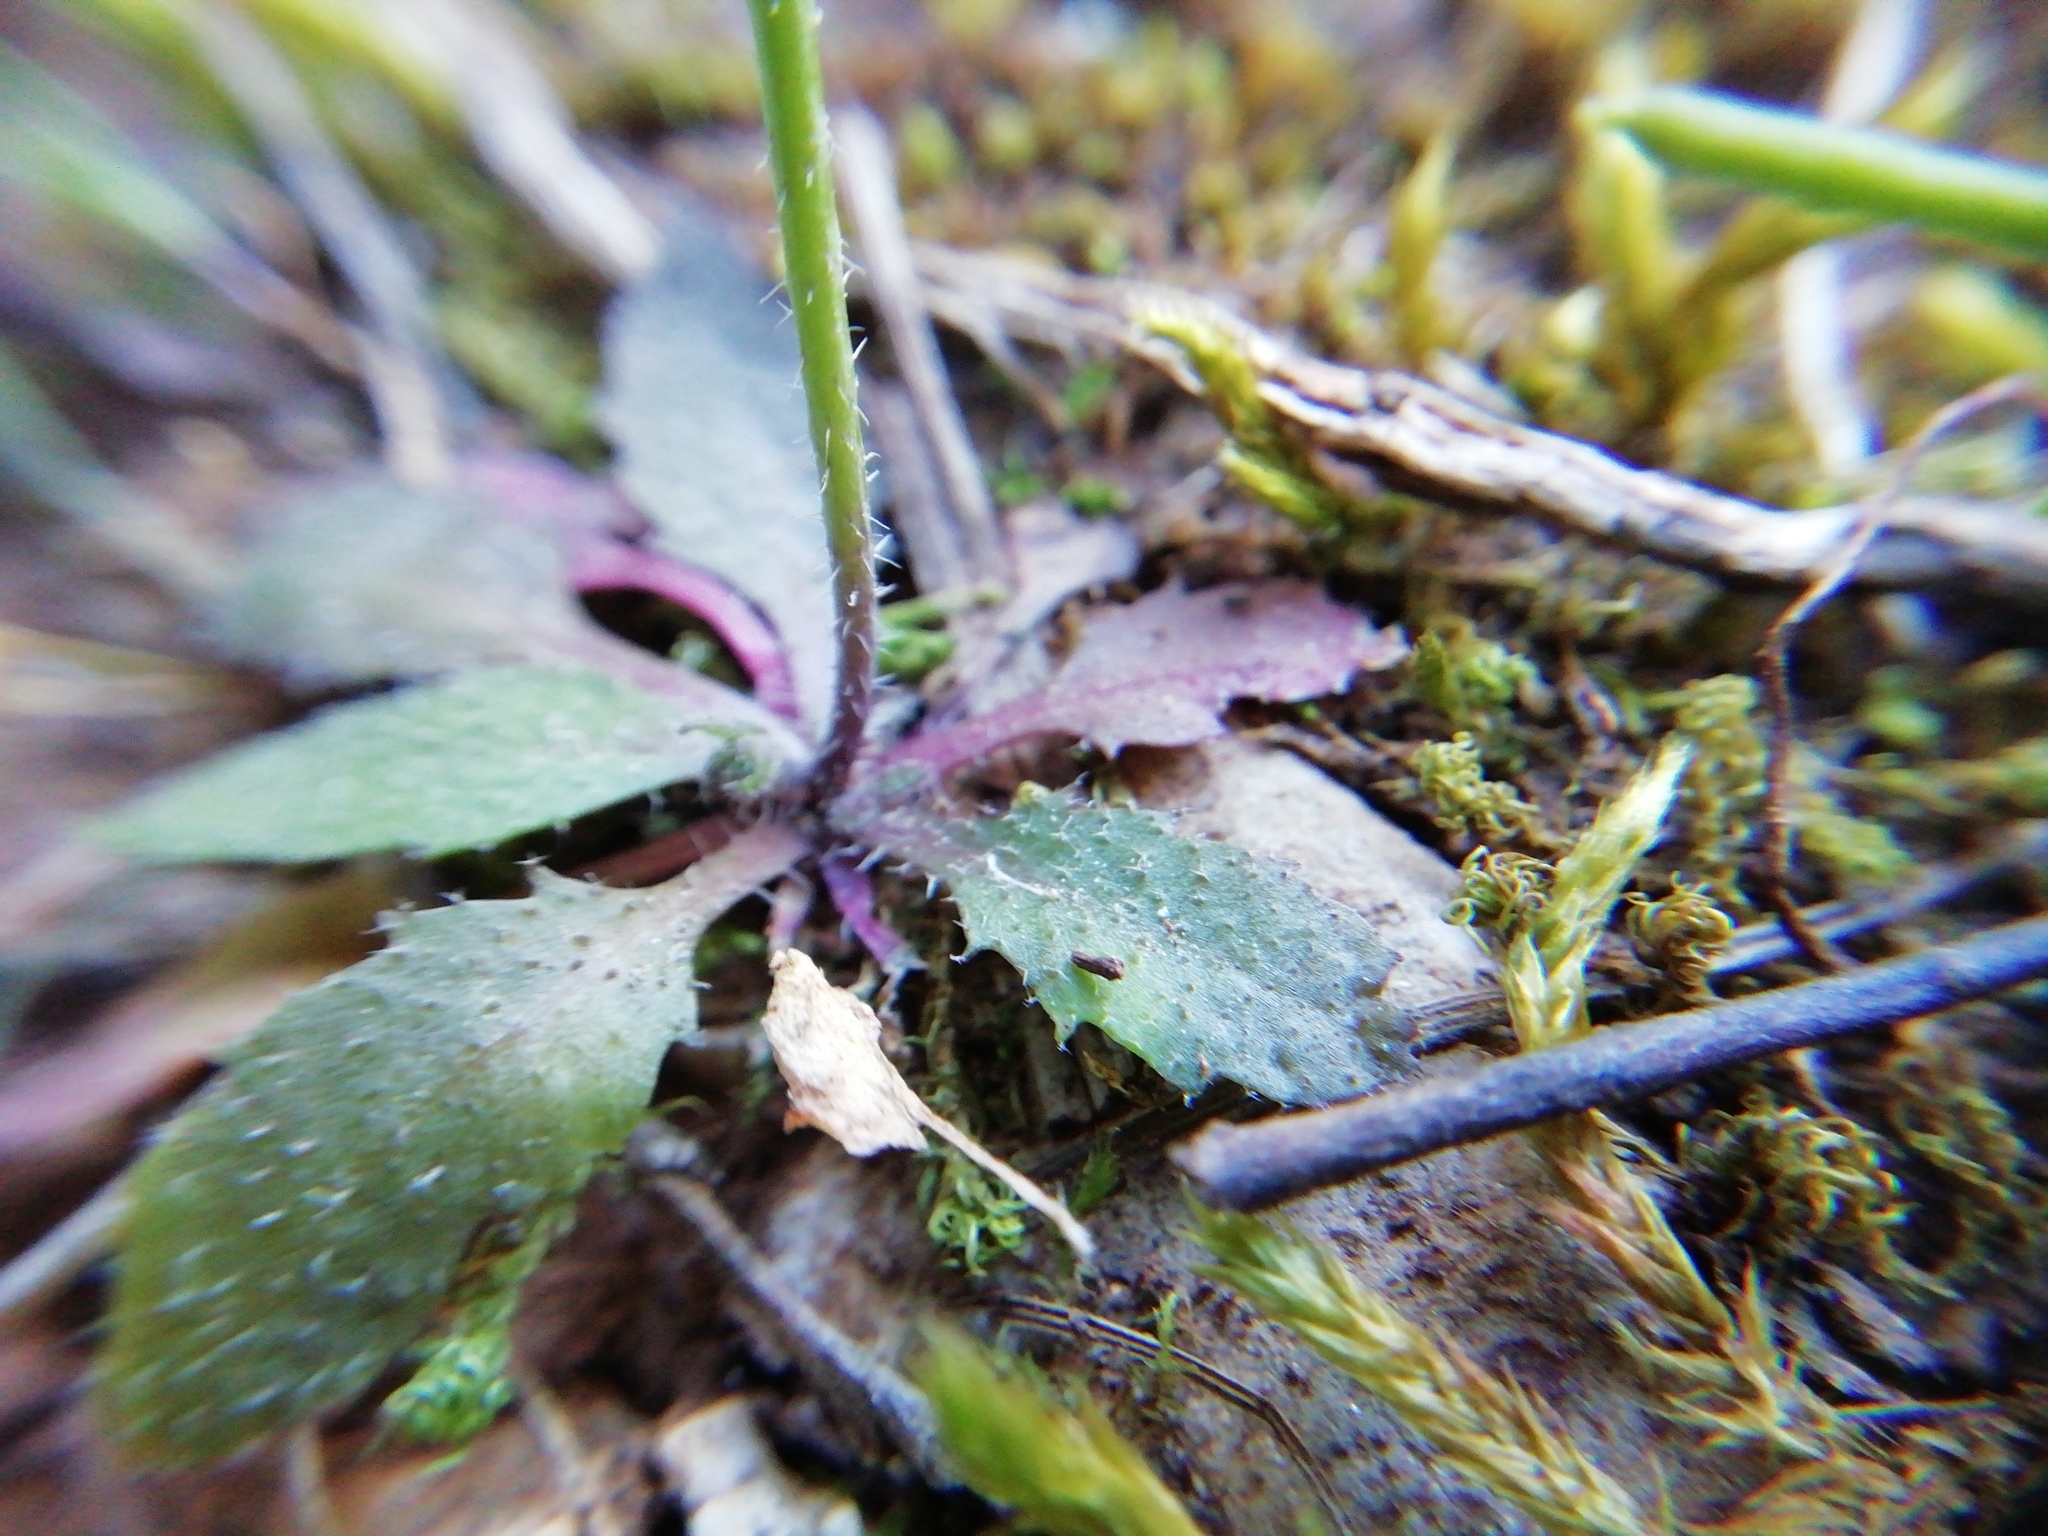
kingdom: Plantae
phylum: Tracheophyta
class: Magnoliopsida
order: Brassicales
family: Brassicaceae
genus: Arabidopsis
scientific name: Arabidopsis thaliana
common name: Thale cress
